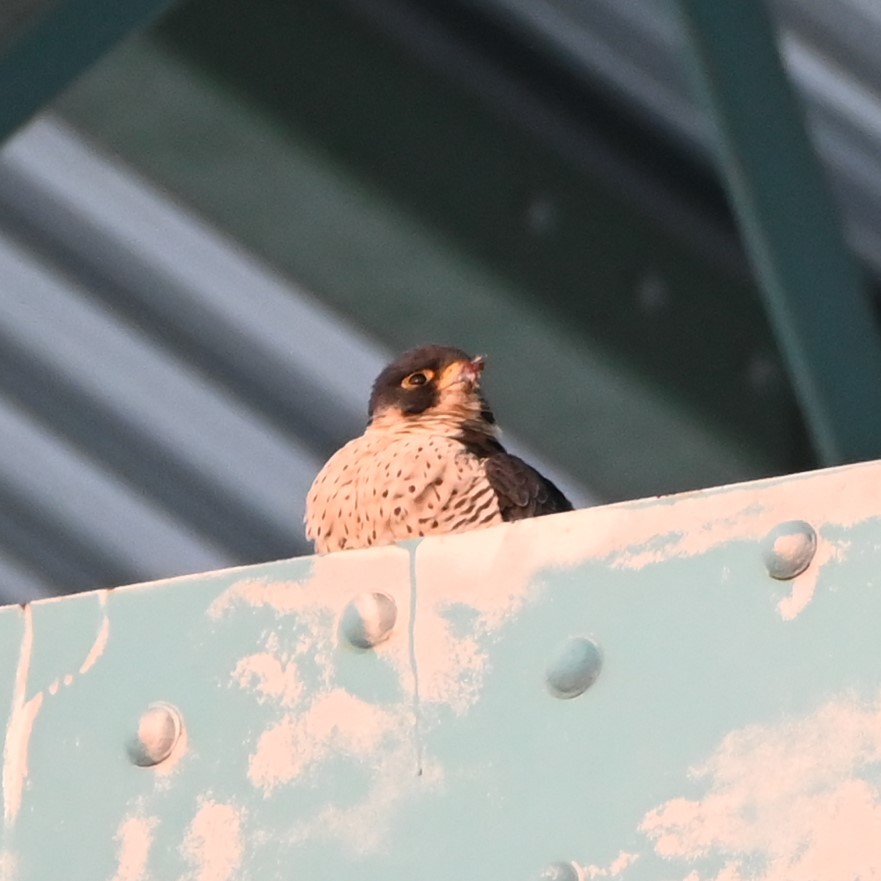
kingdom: Animalia
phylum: Chordata
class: Aves
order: Falconiformes
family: Falconidae
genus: Falco
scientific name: Falco peregrinus
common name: Peregrine falcon
